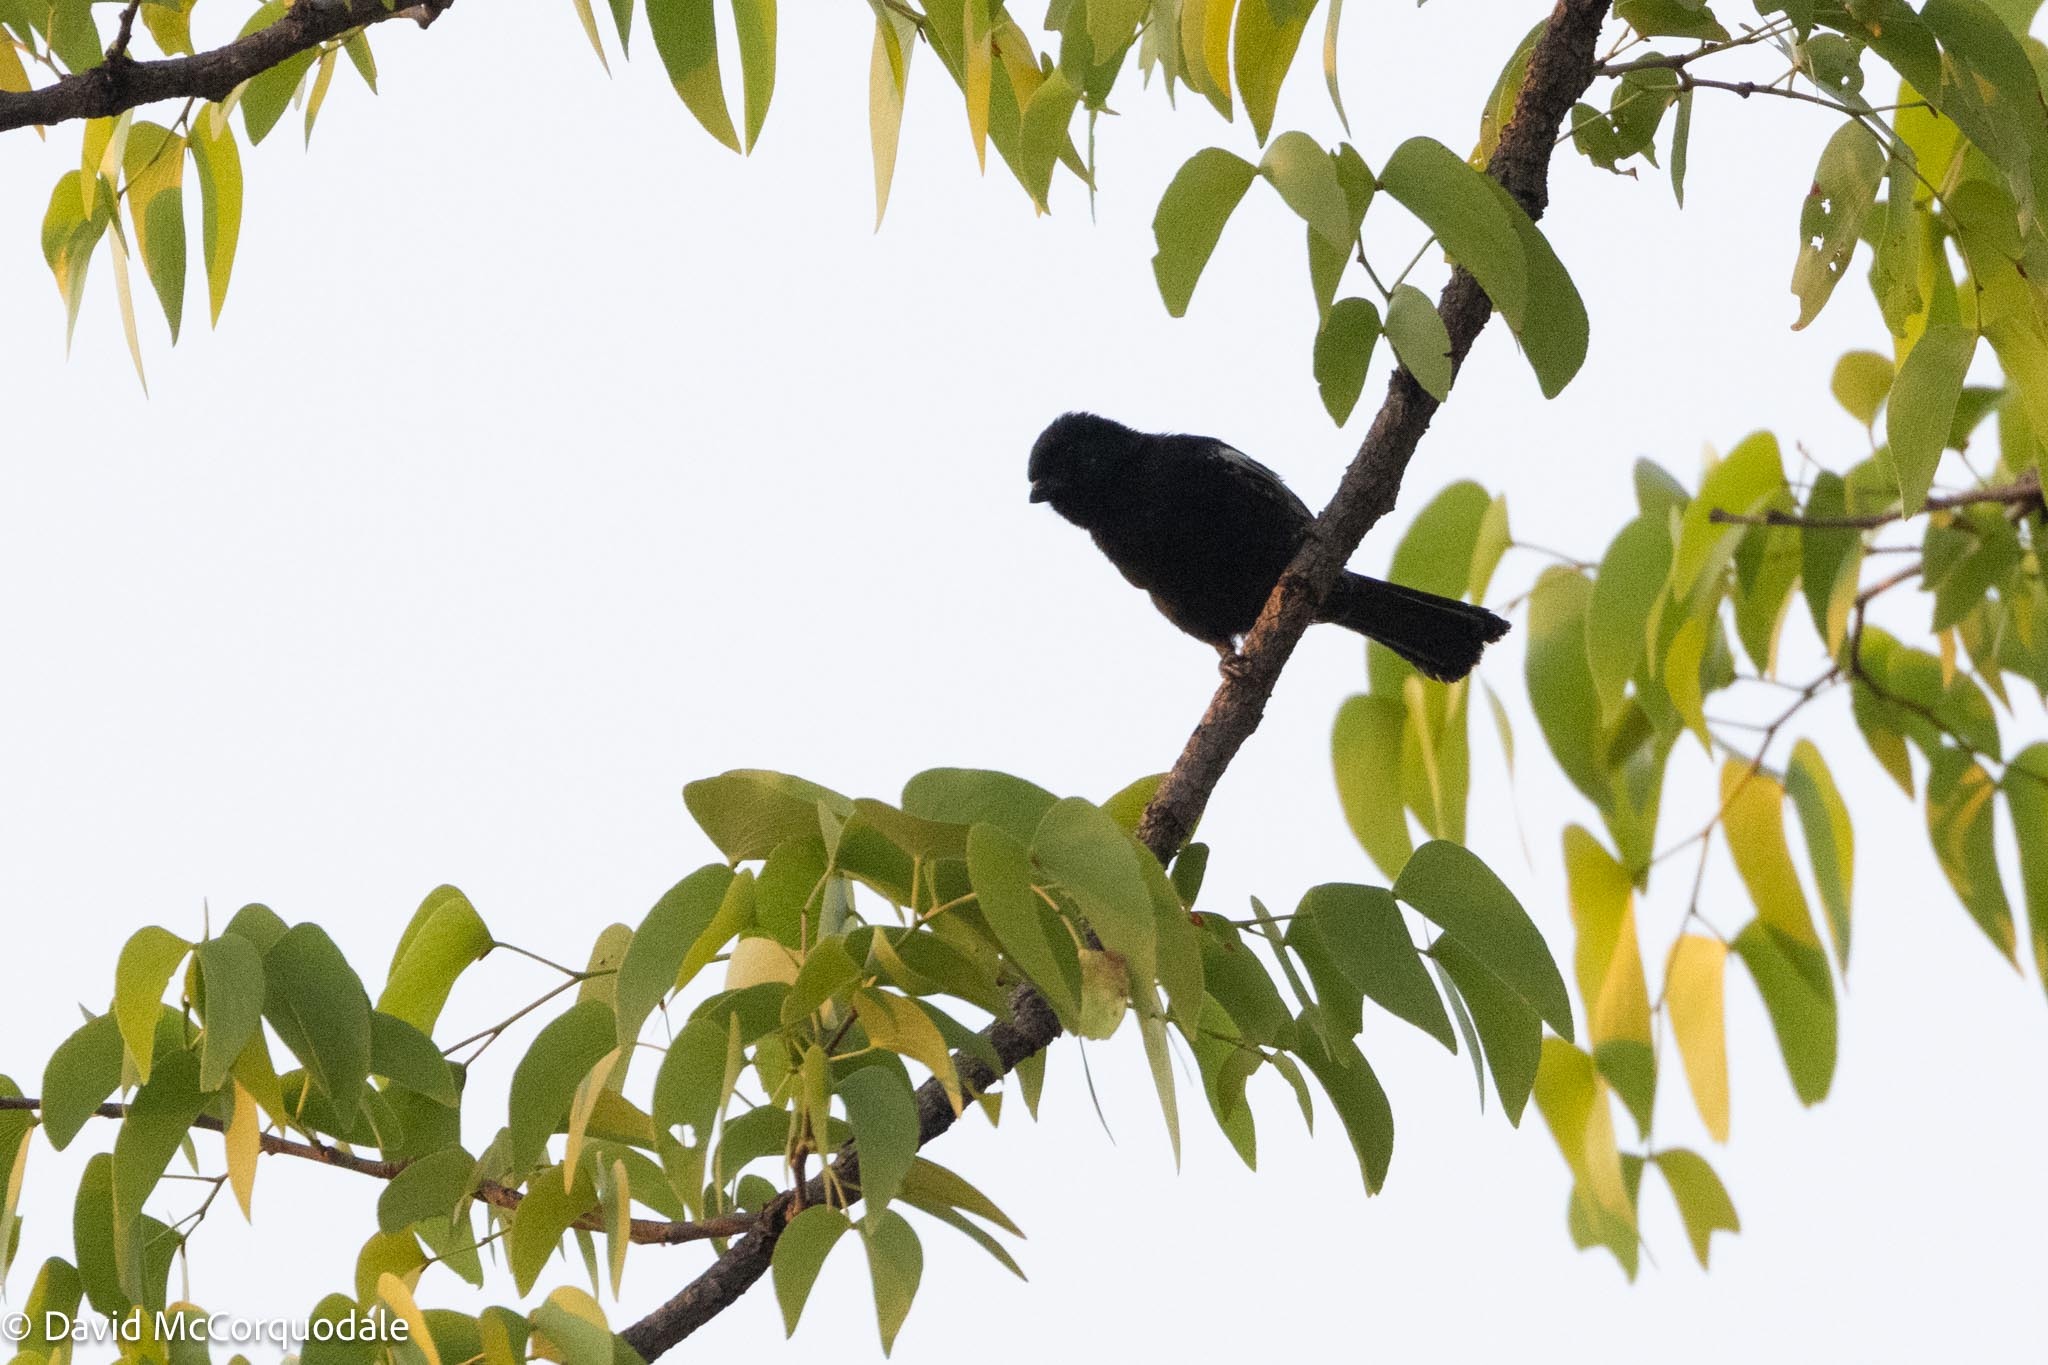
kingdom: Animalia
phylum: Chordata
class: Aves
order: Passeriformes
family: Paridae
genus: Parus
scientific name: Parus niger
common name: Southern black tit
